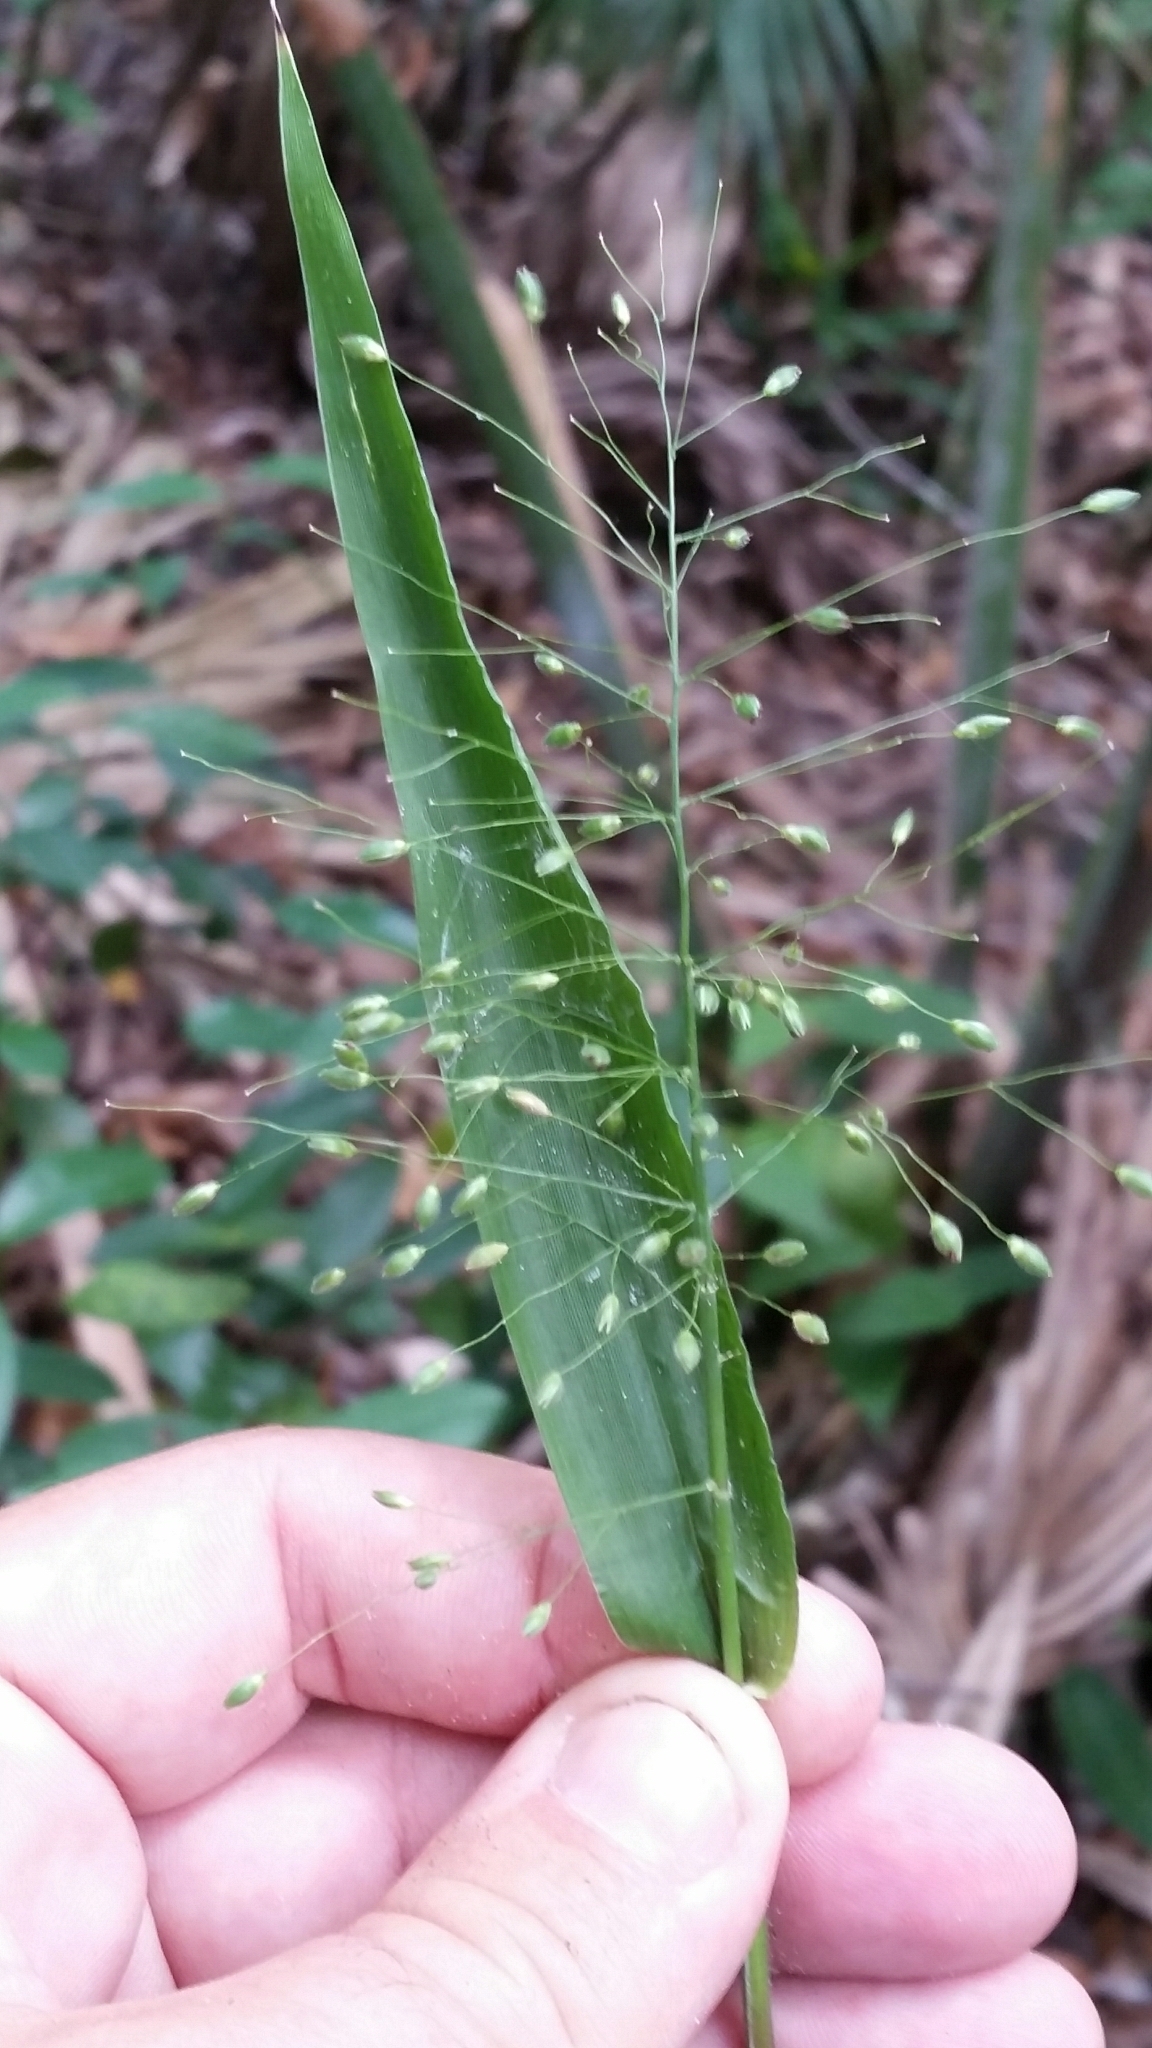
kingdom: Plantae
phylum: Tracheophyta
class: Liliopsida
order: Poales
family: Poaceae
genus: Dichanthelium
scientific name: Dichanthelium commutatum
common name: Variable witchgrass
